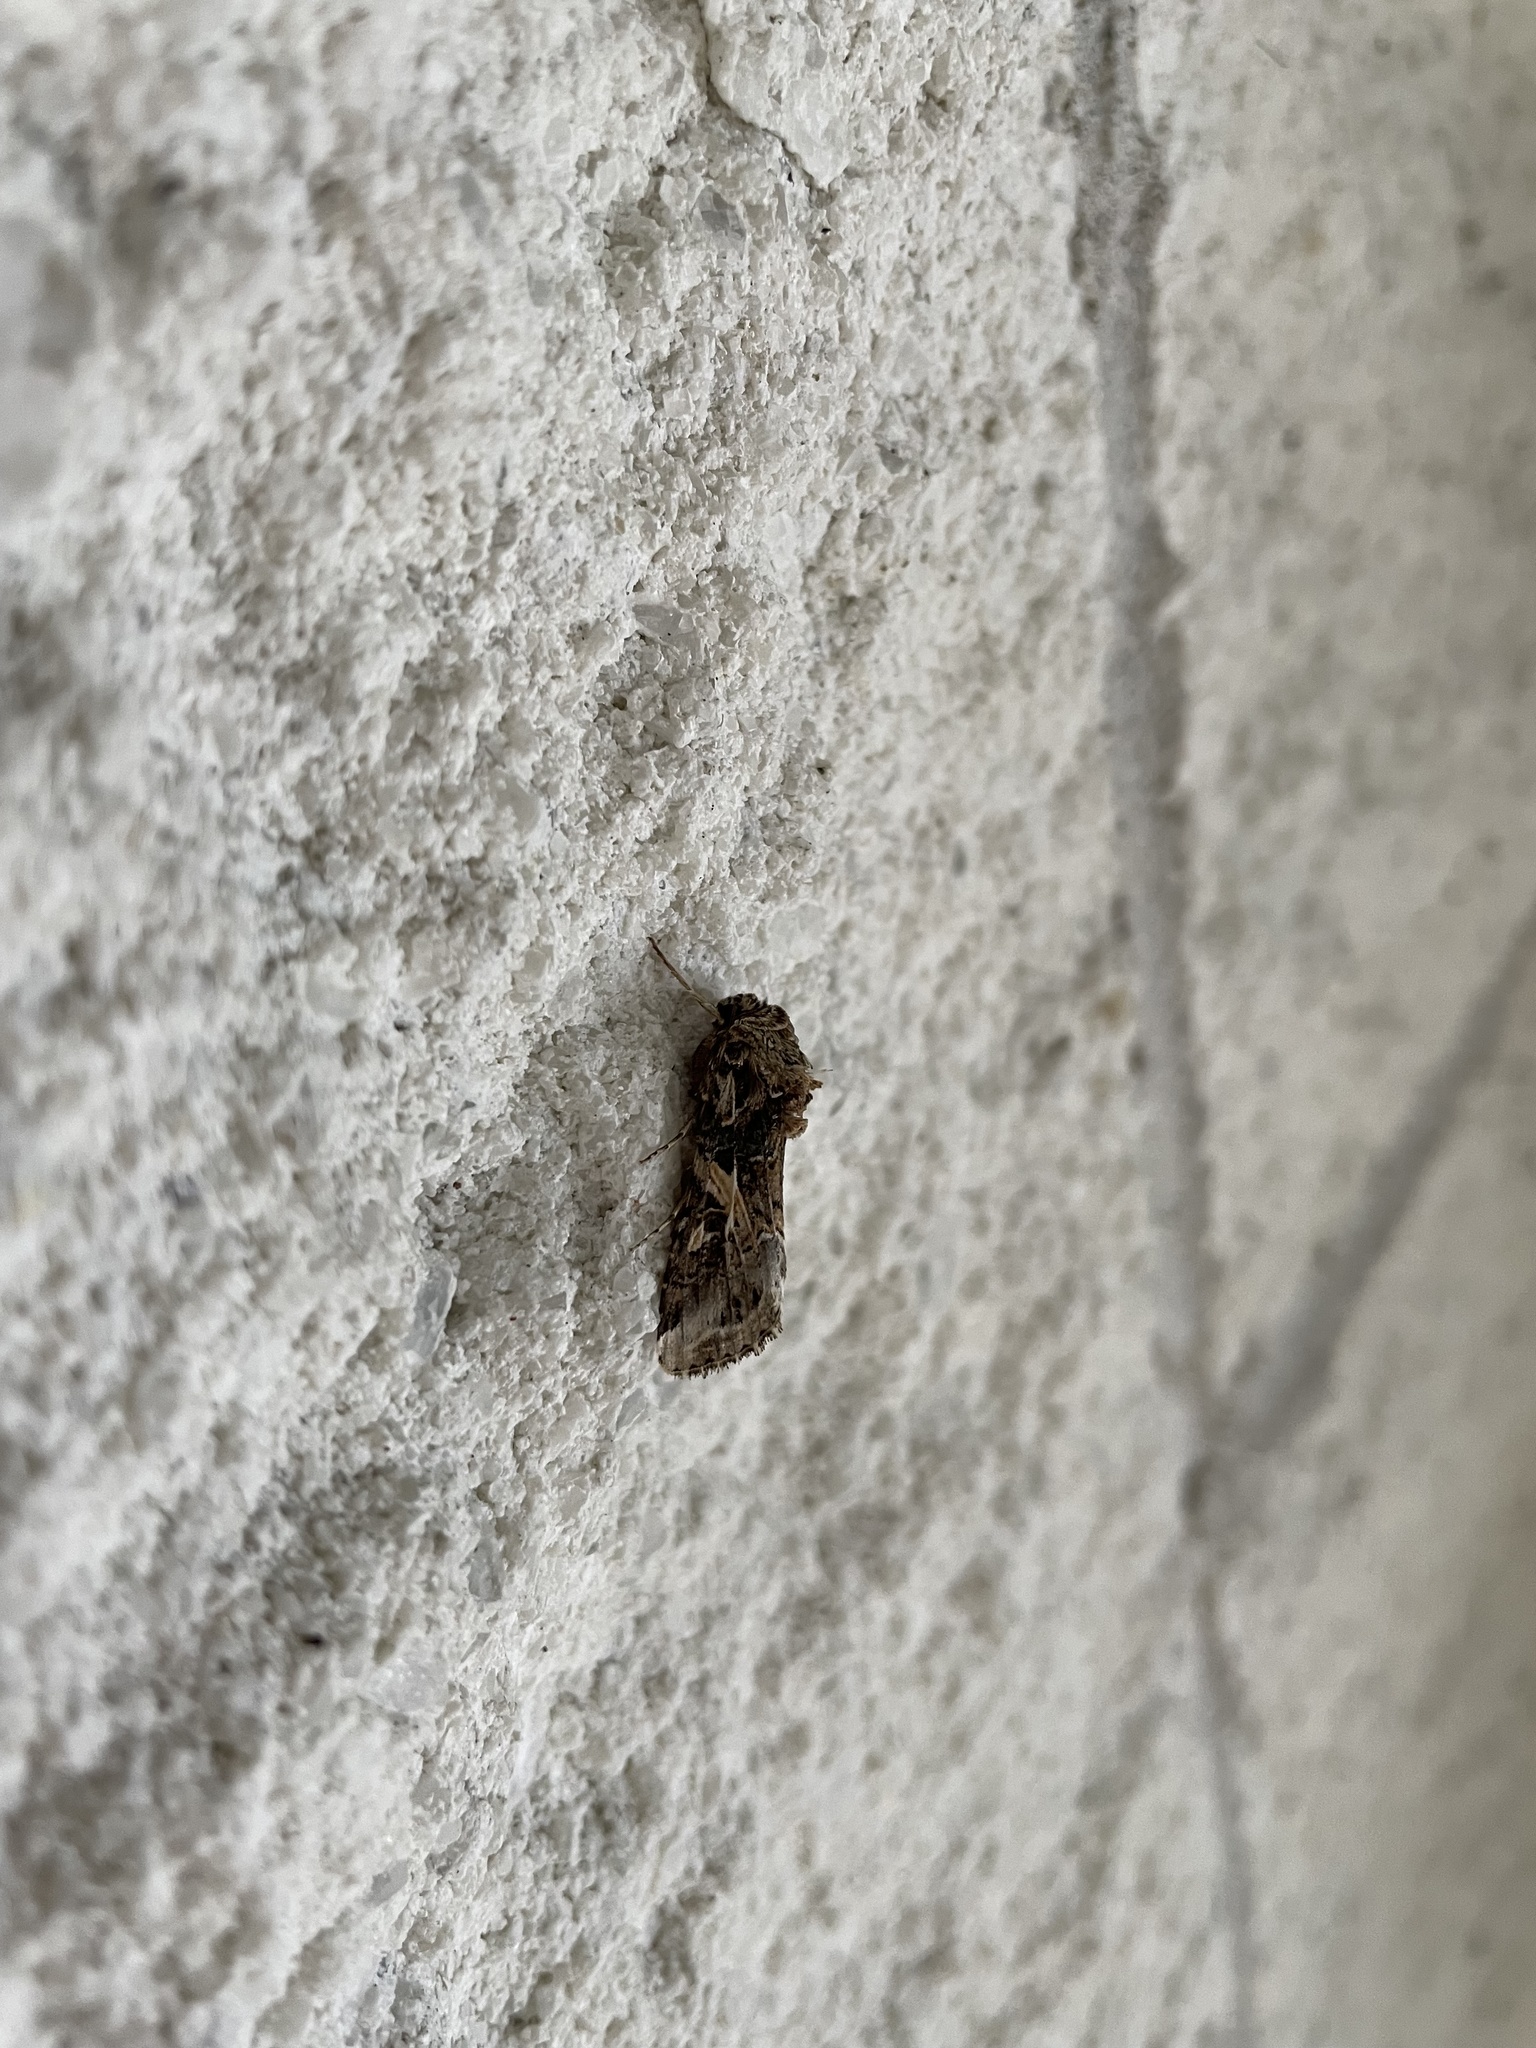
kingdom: Animalia
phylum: Arthropoda
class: Insecta
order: Lepidoptera
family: Noctuidae
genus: Spodoptera
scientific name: Spodoptera ornithogalli
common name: Yellow-striped armyworm
